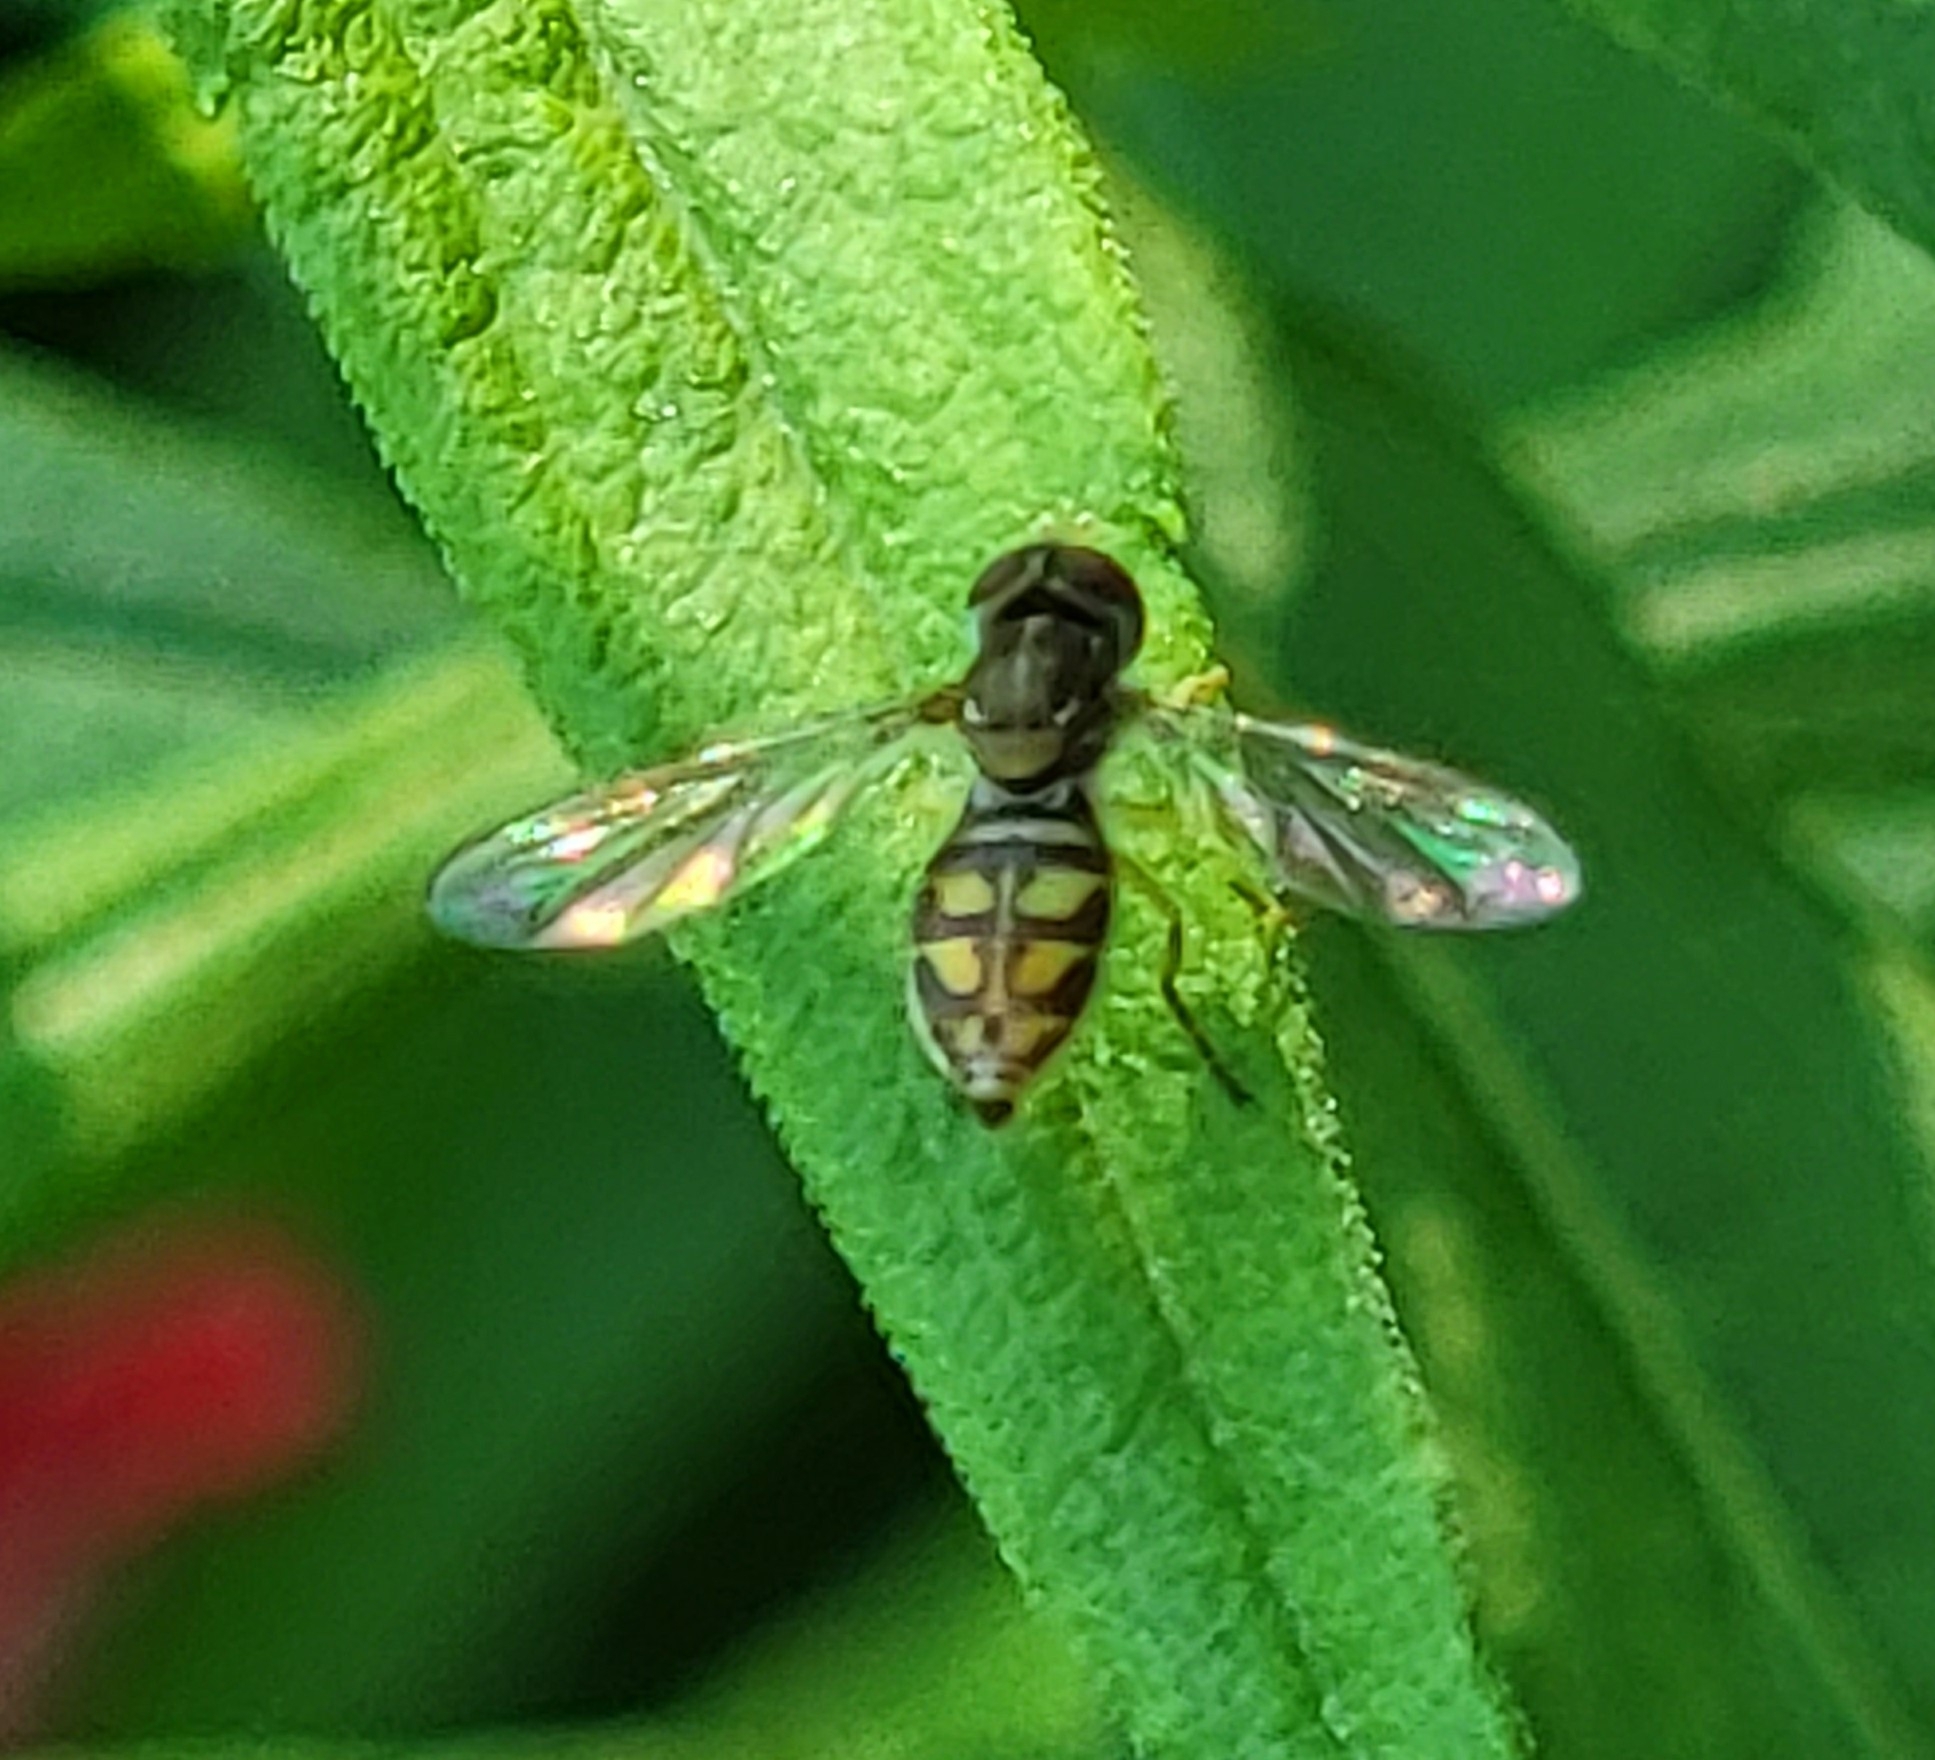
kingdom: Animalia
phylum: Arthropoda
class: Insecta
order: Diptera
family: Syrphidae
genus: Toxomerus
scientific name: Toxomerus marginatus
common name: Syrphid fly
